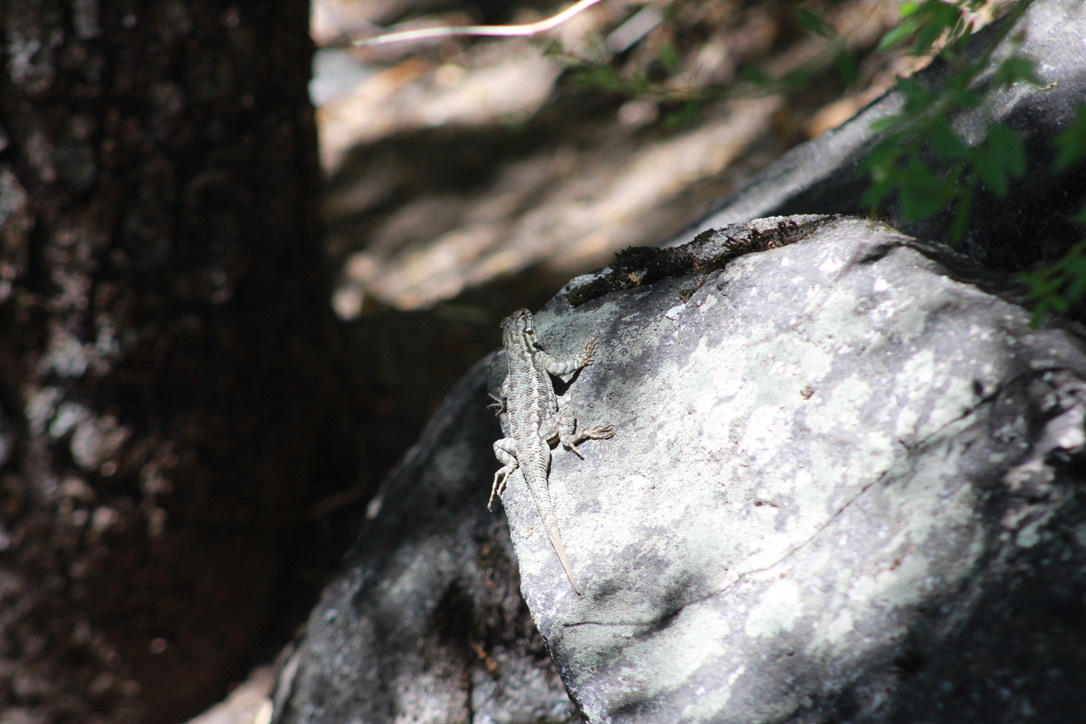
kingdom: Animalia
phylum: Chordata
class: Squamata
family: Phrynosomatidae
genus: Sceloporus
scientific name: Sceloporus occidentalis
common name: Western fence lizard
